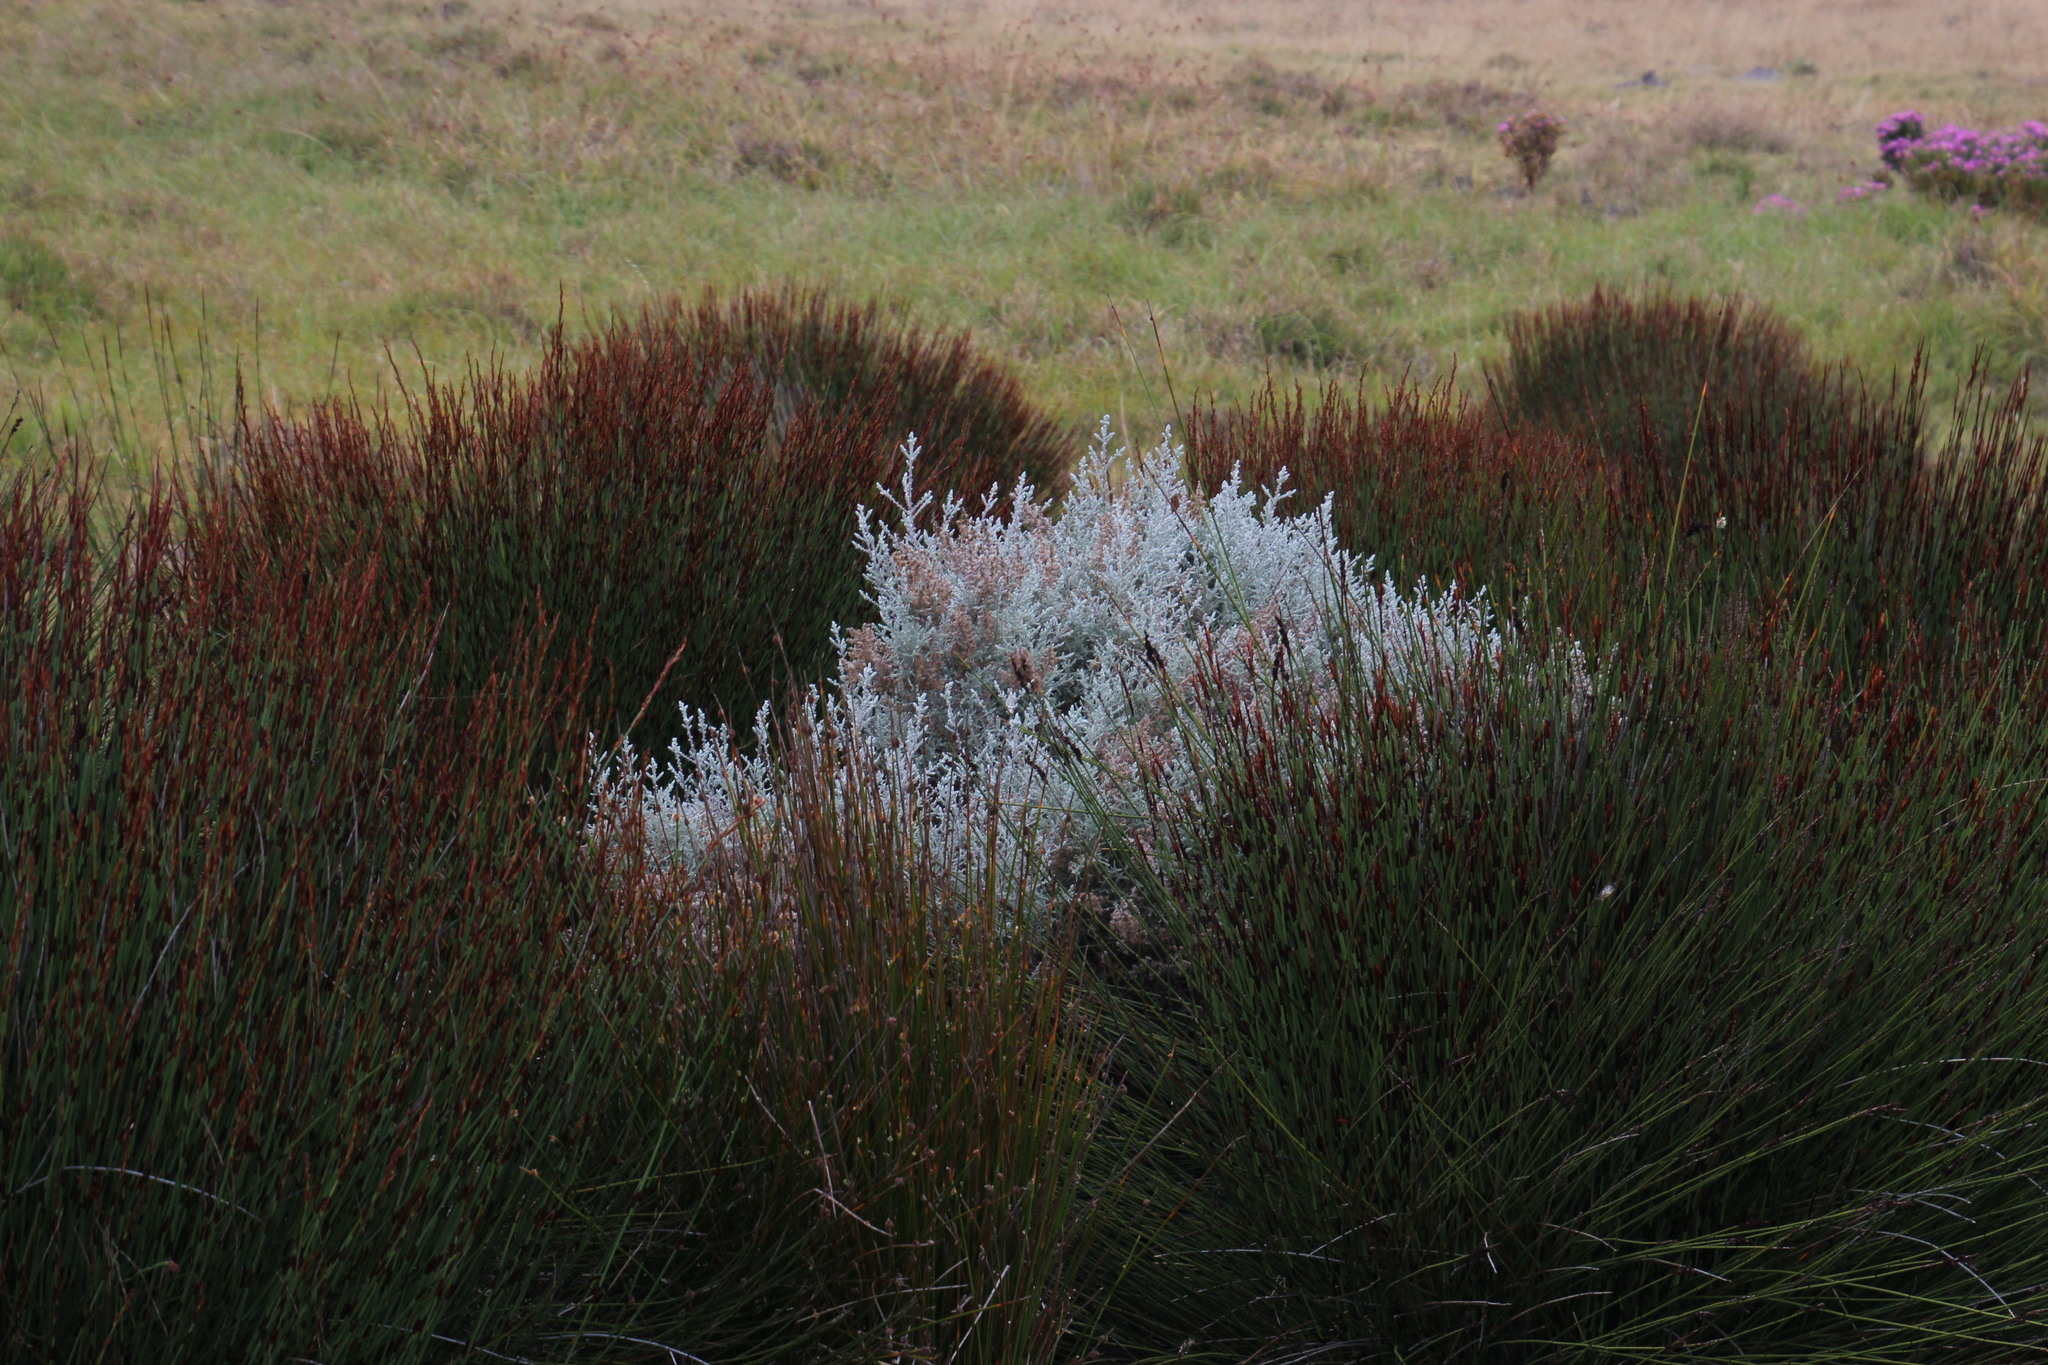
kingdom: Plantae
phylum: Tracheophyta
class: Magnoliopsida
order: Asterales
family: Asteraceae
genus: Seriphium
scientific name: Seriphium plumosum
